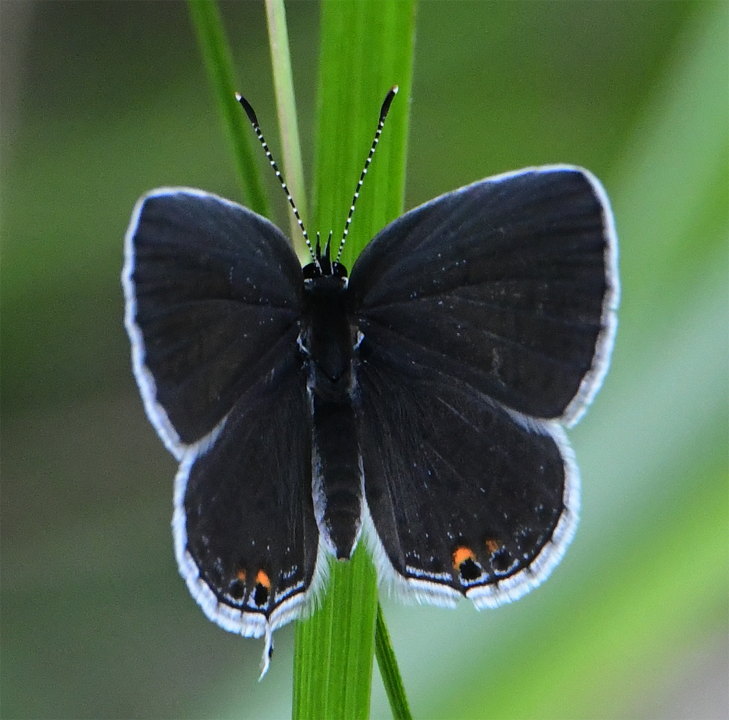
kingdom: Animalia
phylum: Arthropoda
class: Insecta
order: Lepidoptera
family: Lycaenidae
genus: Elkalyce
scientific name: Elkalyce comyntas
